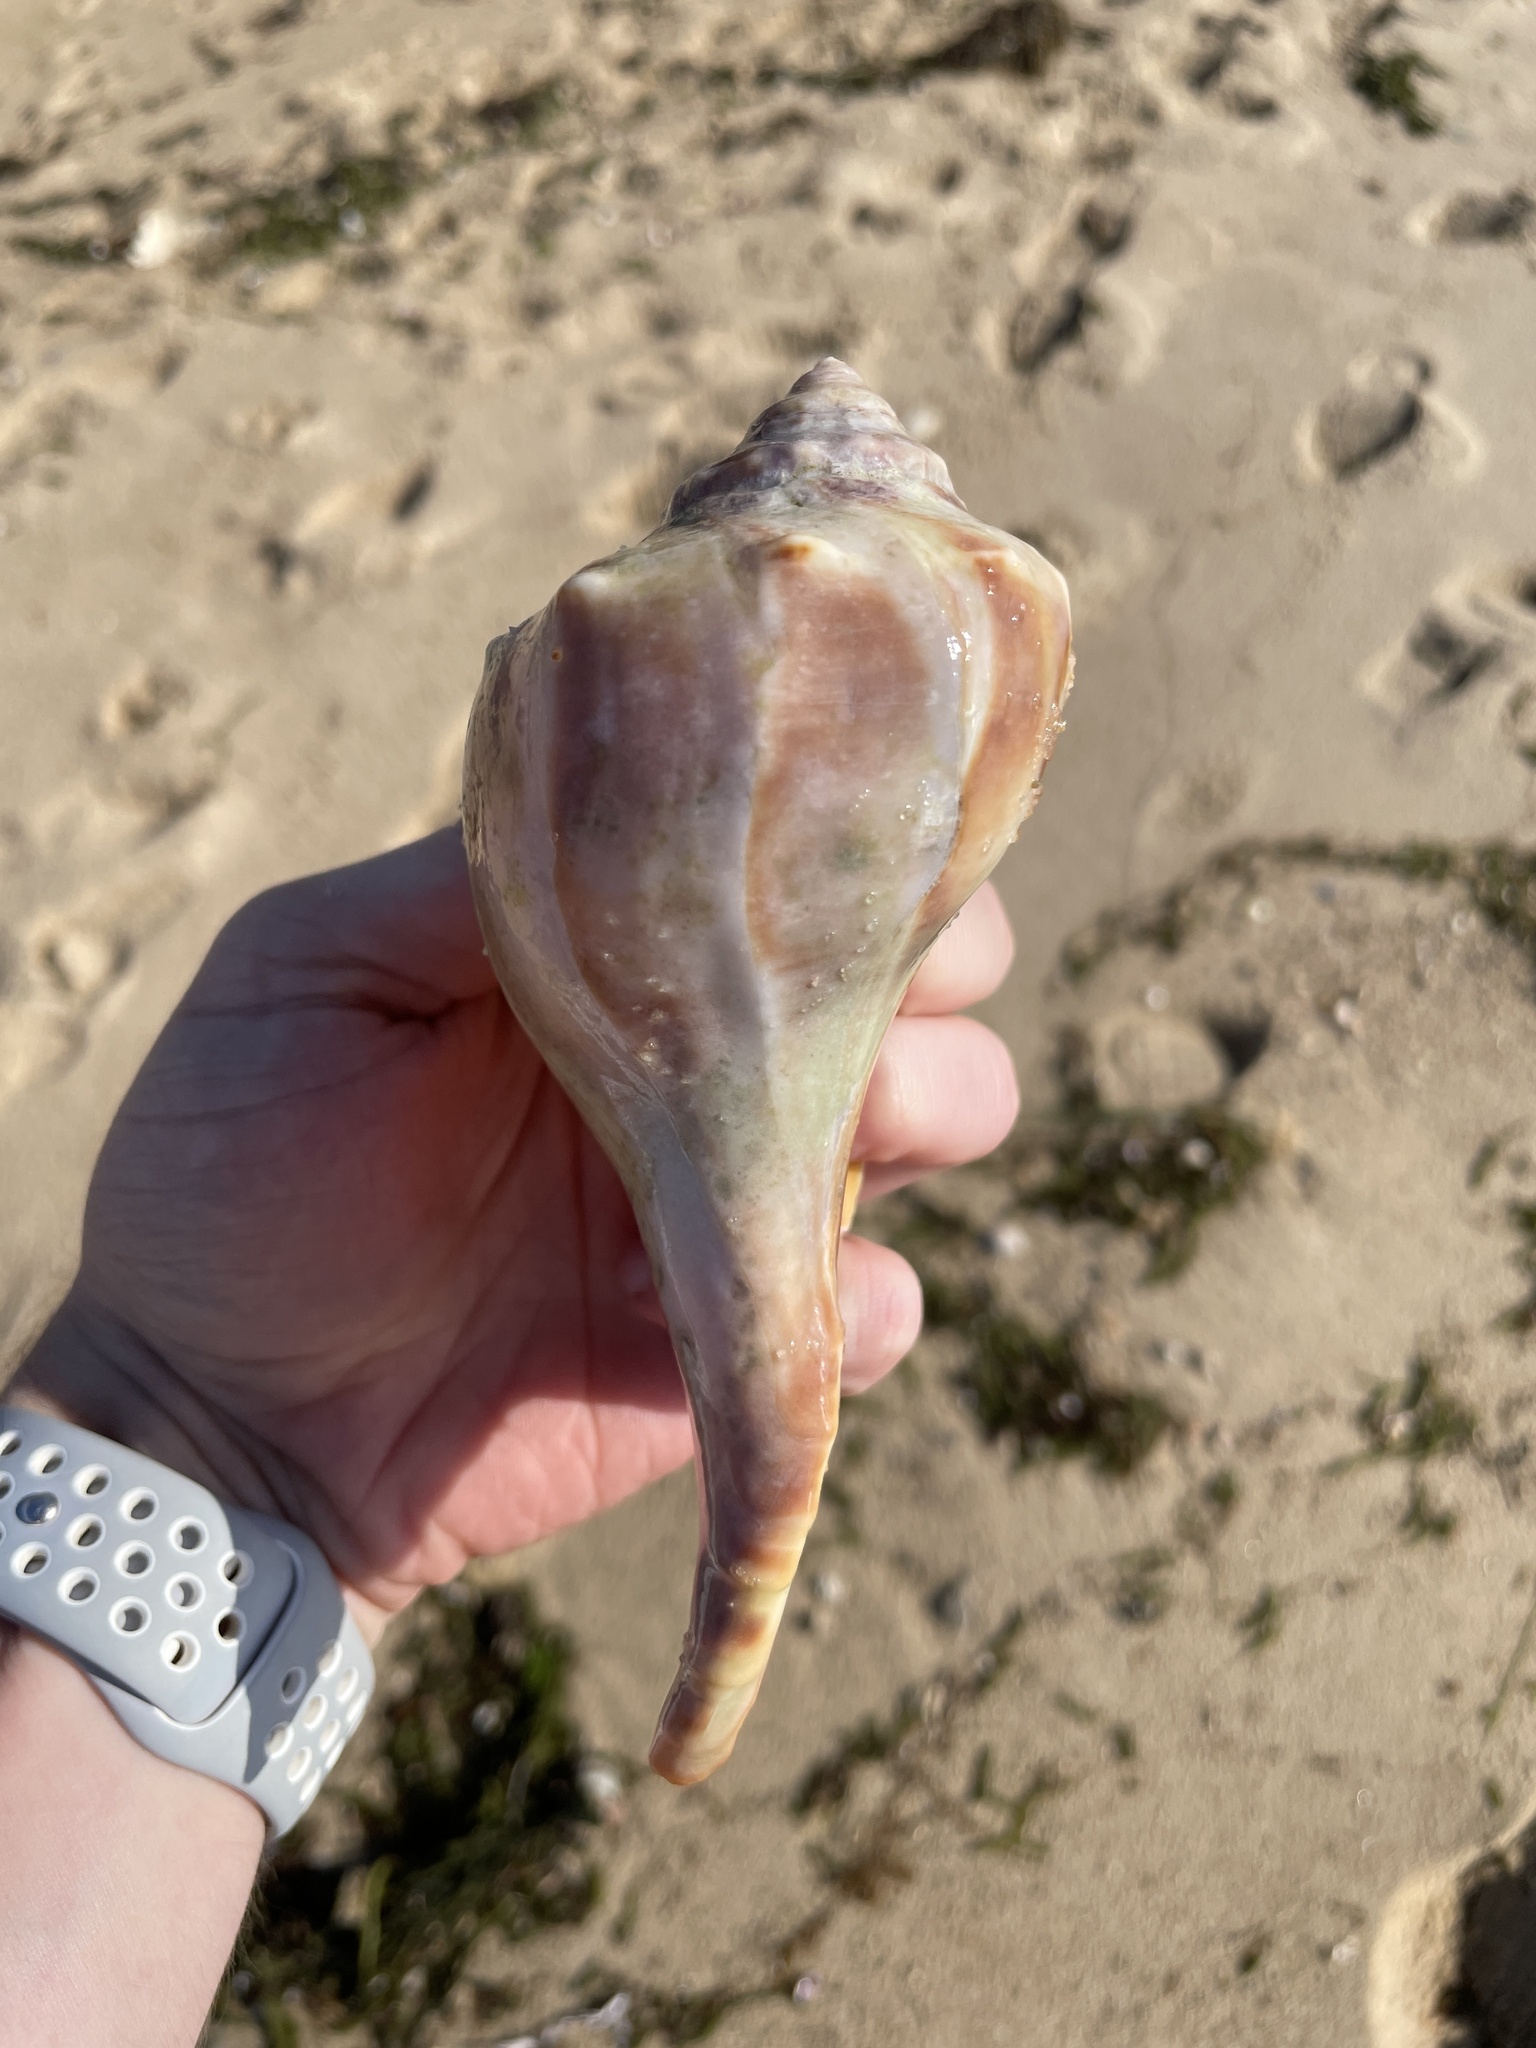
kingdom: Animalia
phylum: Mollusca
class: Gastropoda
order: Neogastropoda
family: Busyconidae
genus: Busycon
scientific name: Busycon carica
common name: Knobbed whelk
